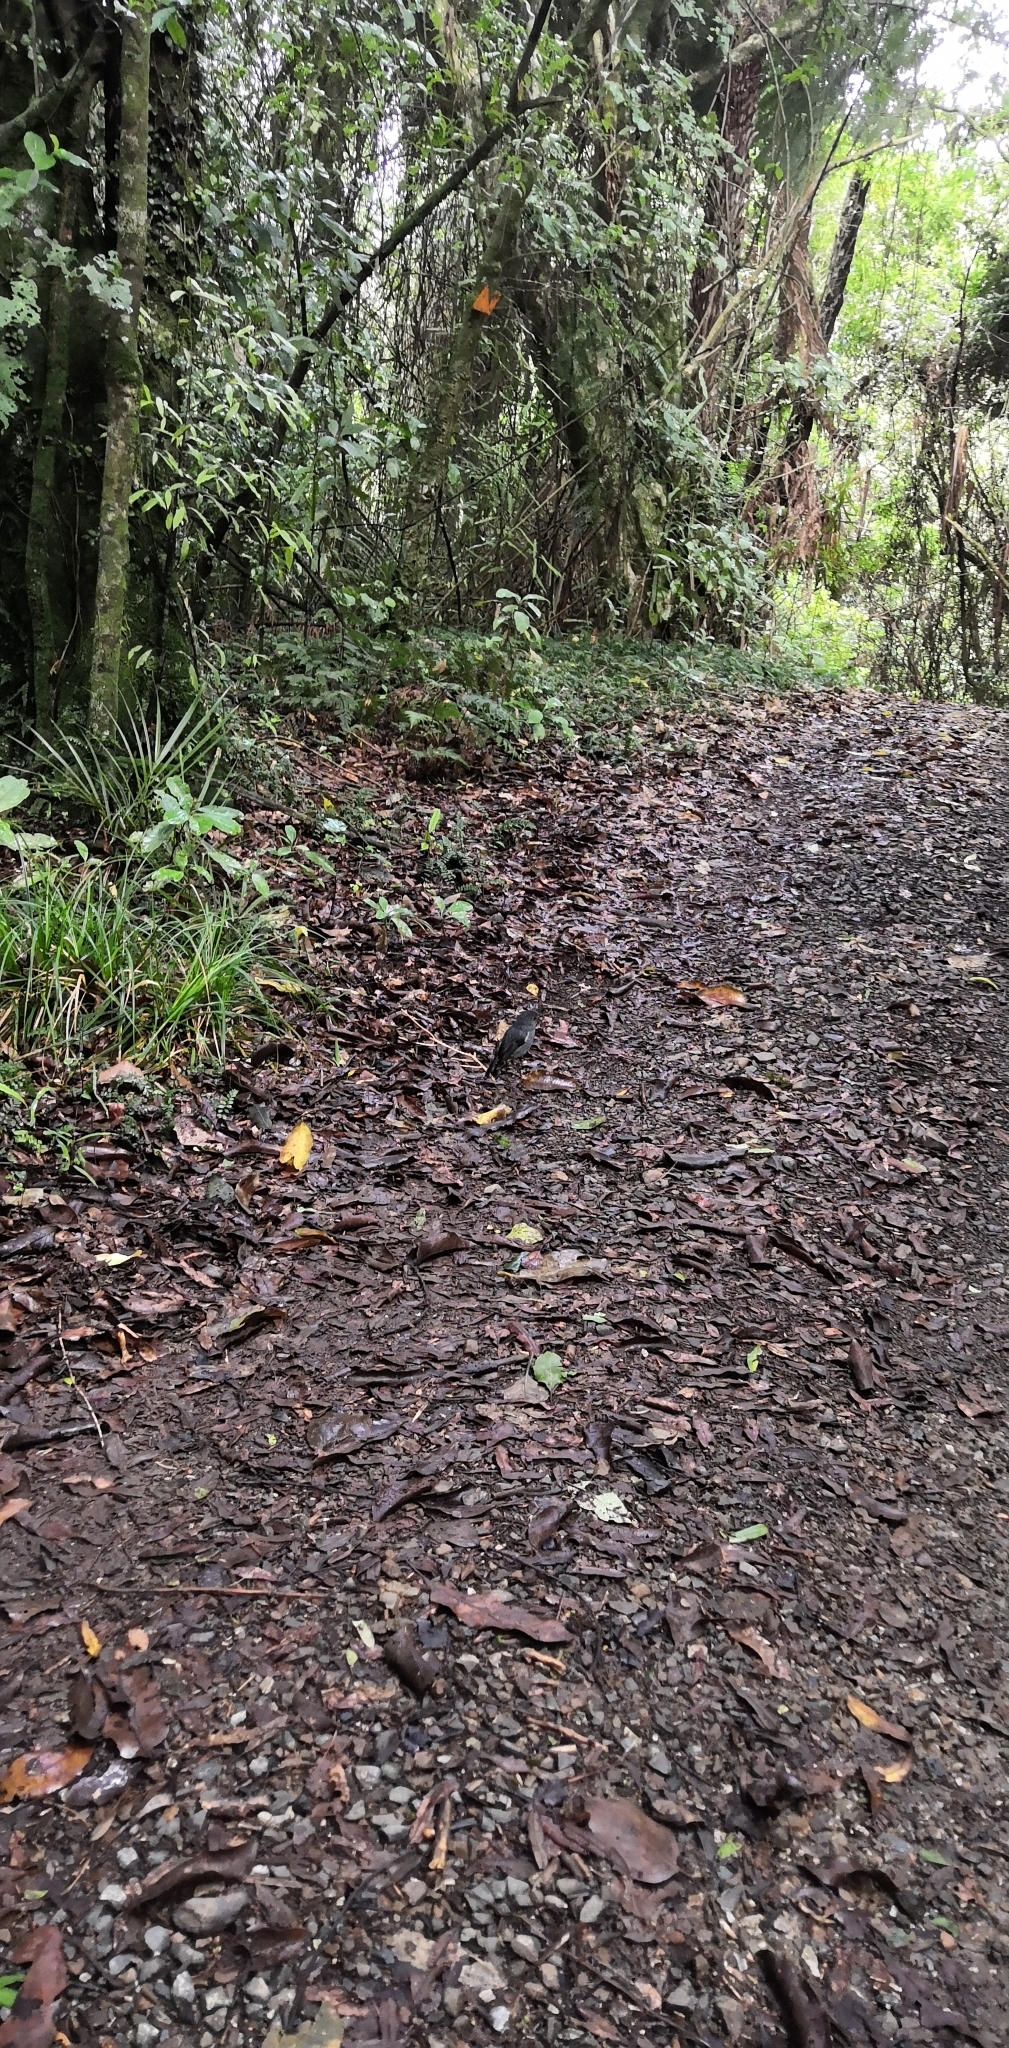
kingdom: Animalia
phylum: Chordata
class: Aves
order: Passeriformes
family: Petroicidae
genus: Petroica
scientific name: Petroica australis
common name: New zealand robin
